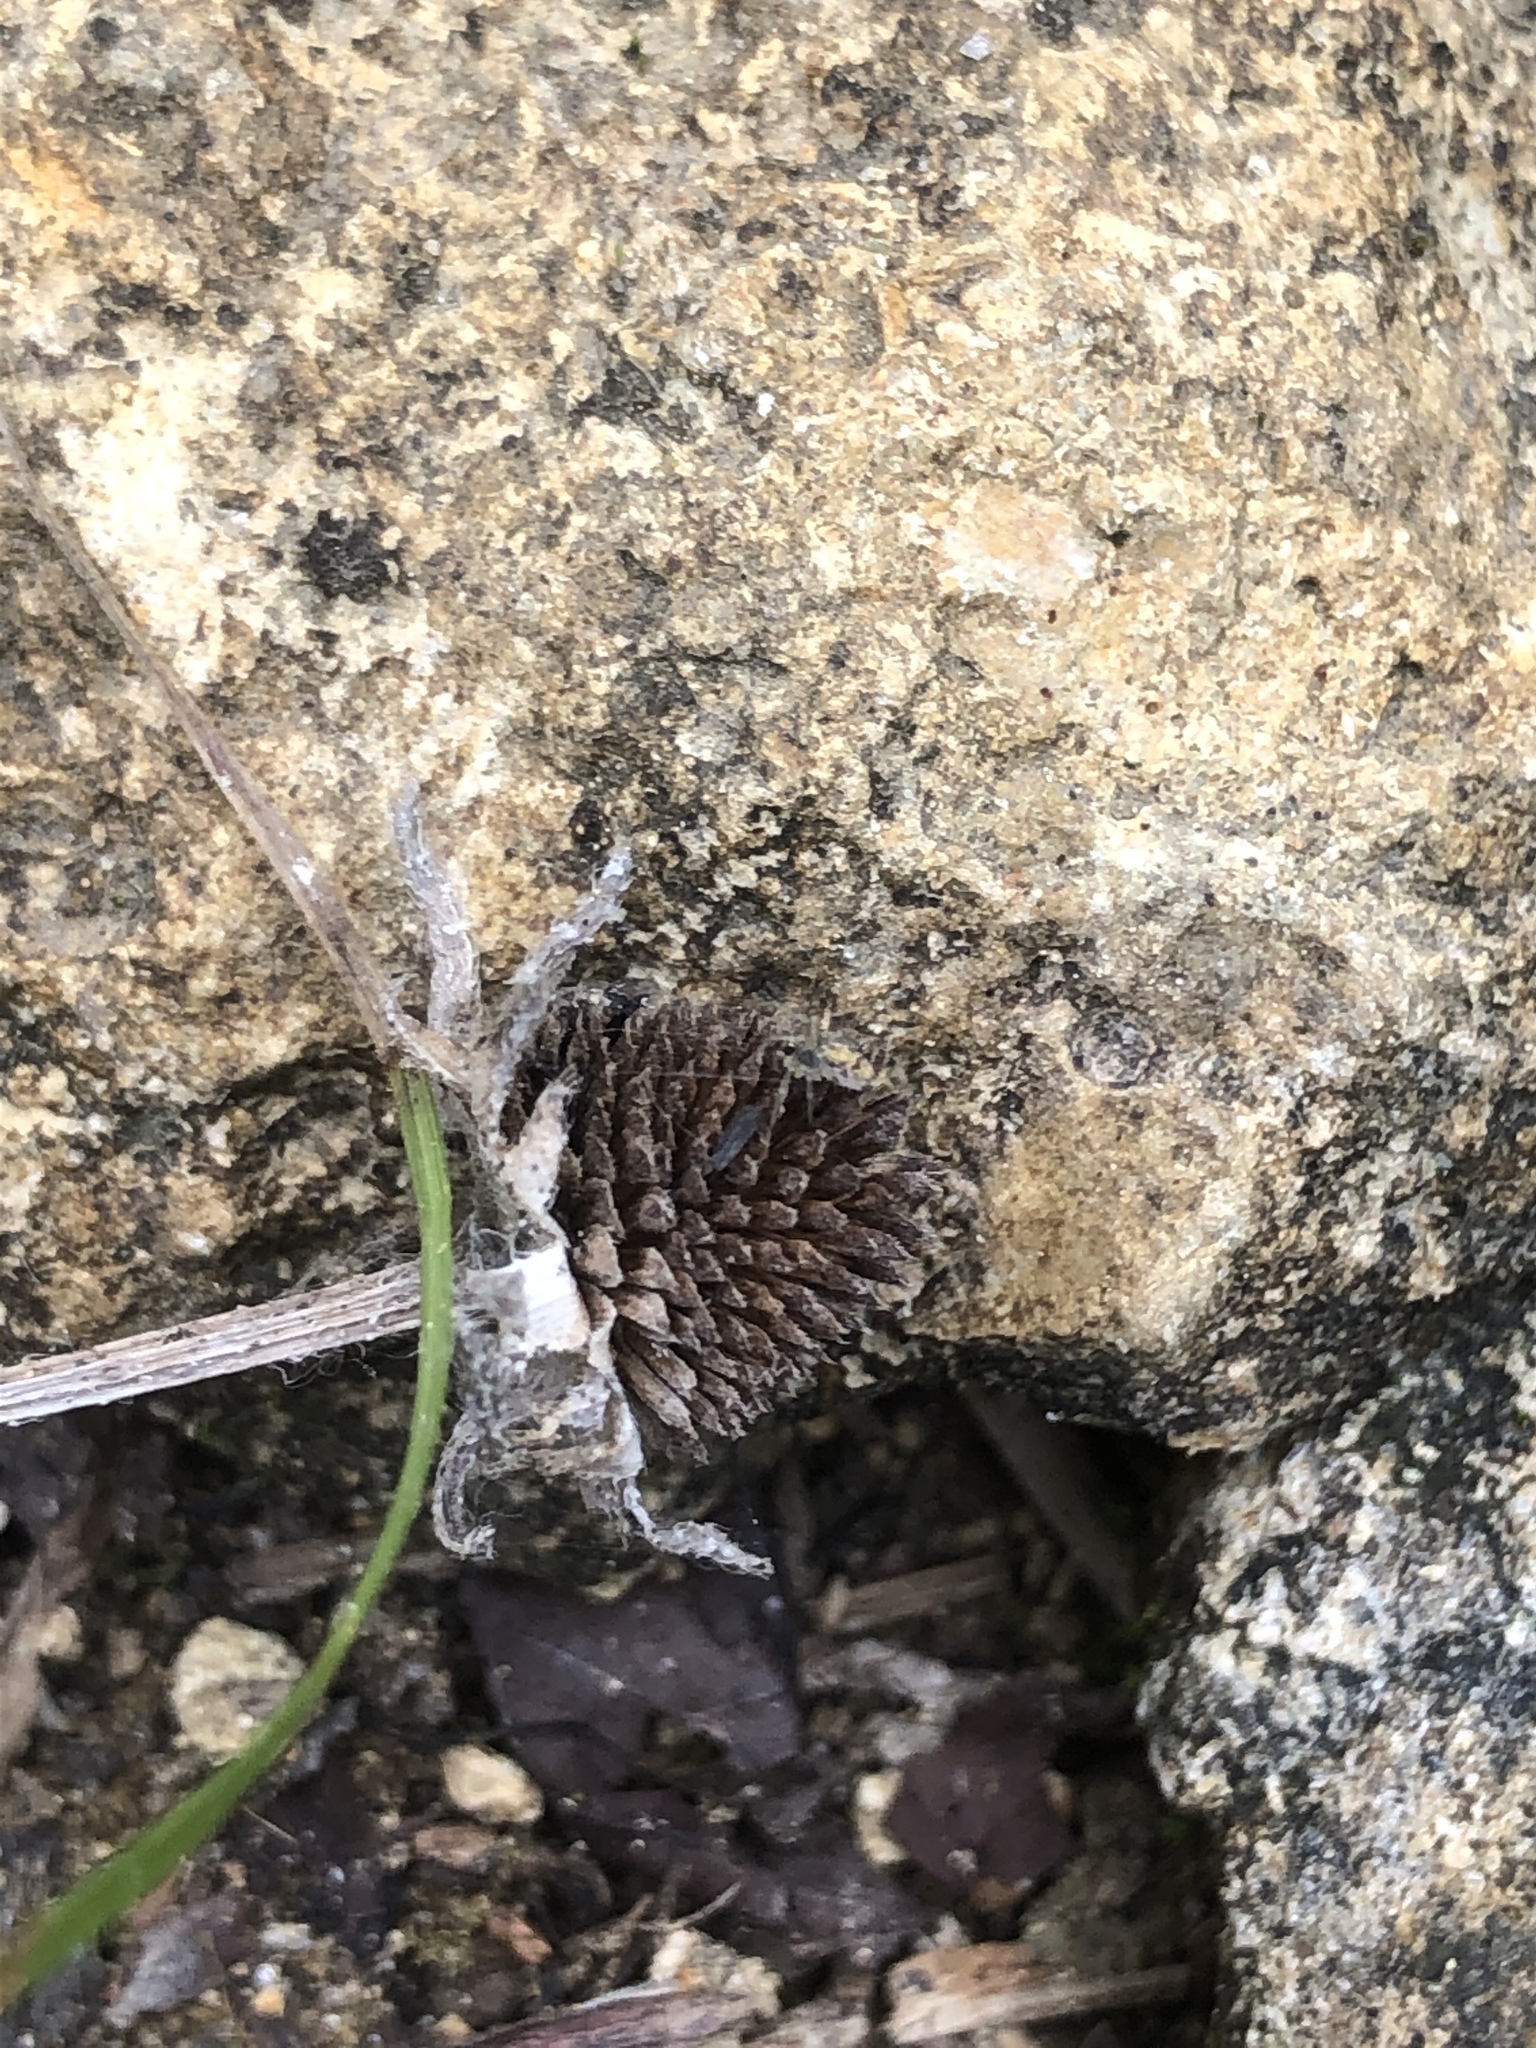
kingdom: Plantae
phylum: Tracheophyta
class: Magnoliopsida
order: Asterales
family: Asteraceae
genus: Rudbeckia
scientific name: Rudbeckia hirta
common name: Black-eyed-susan
